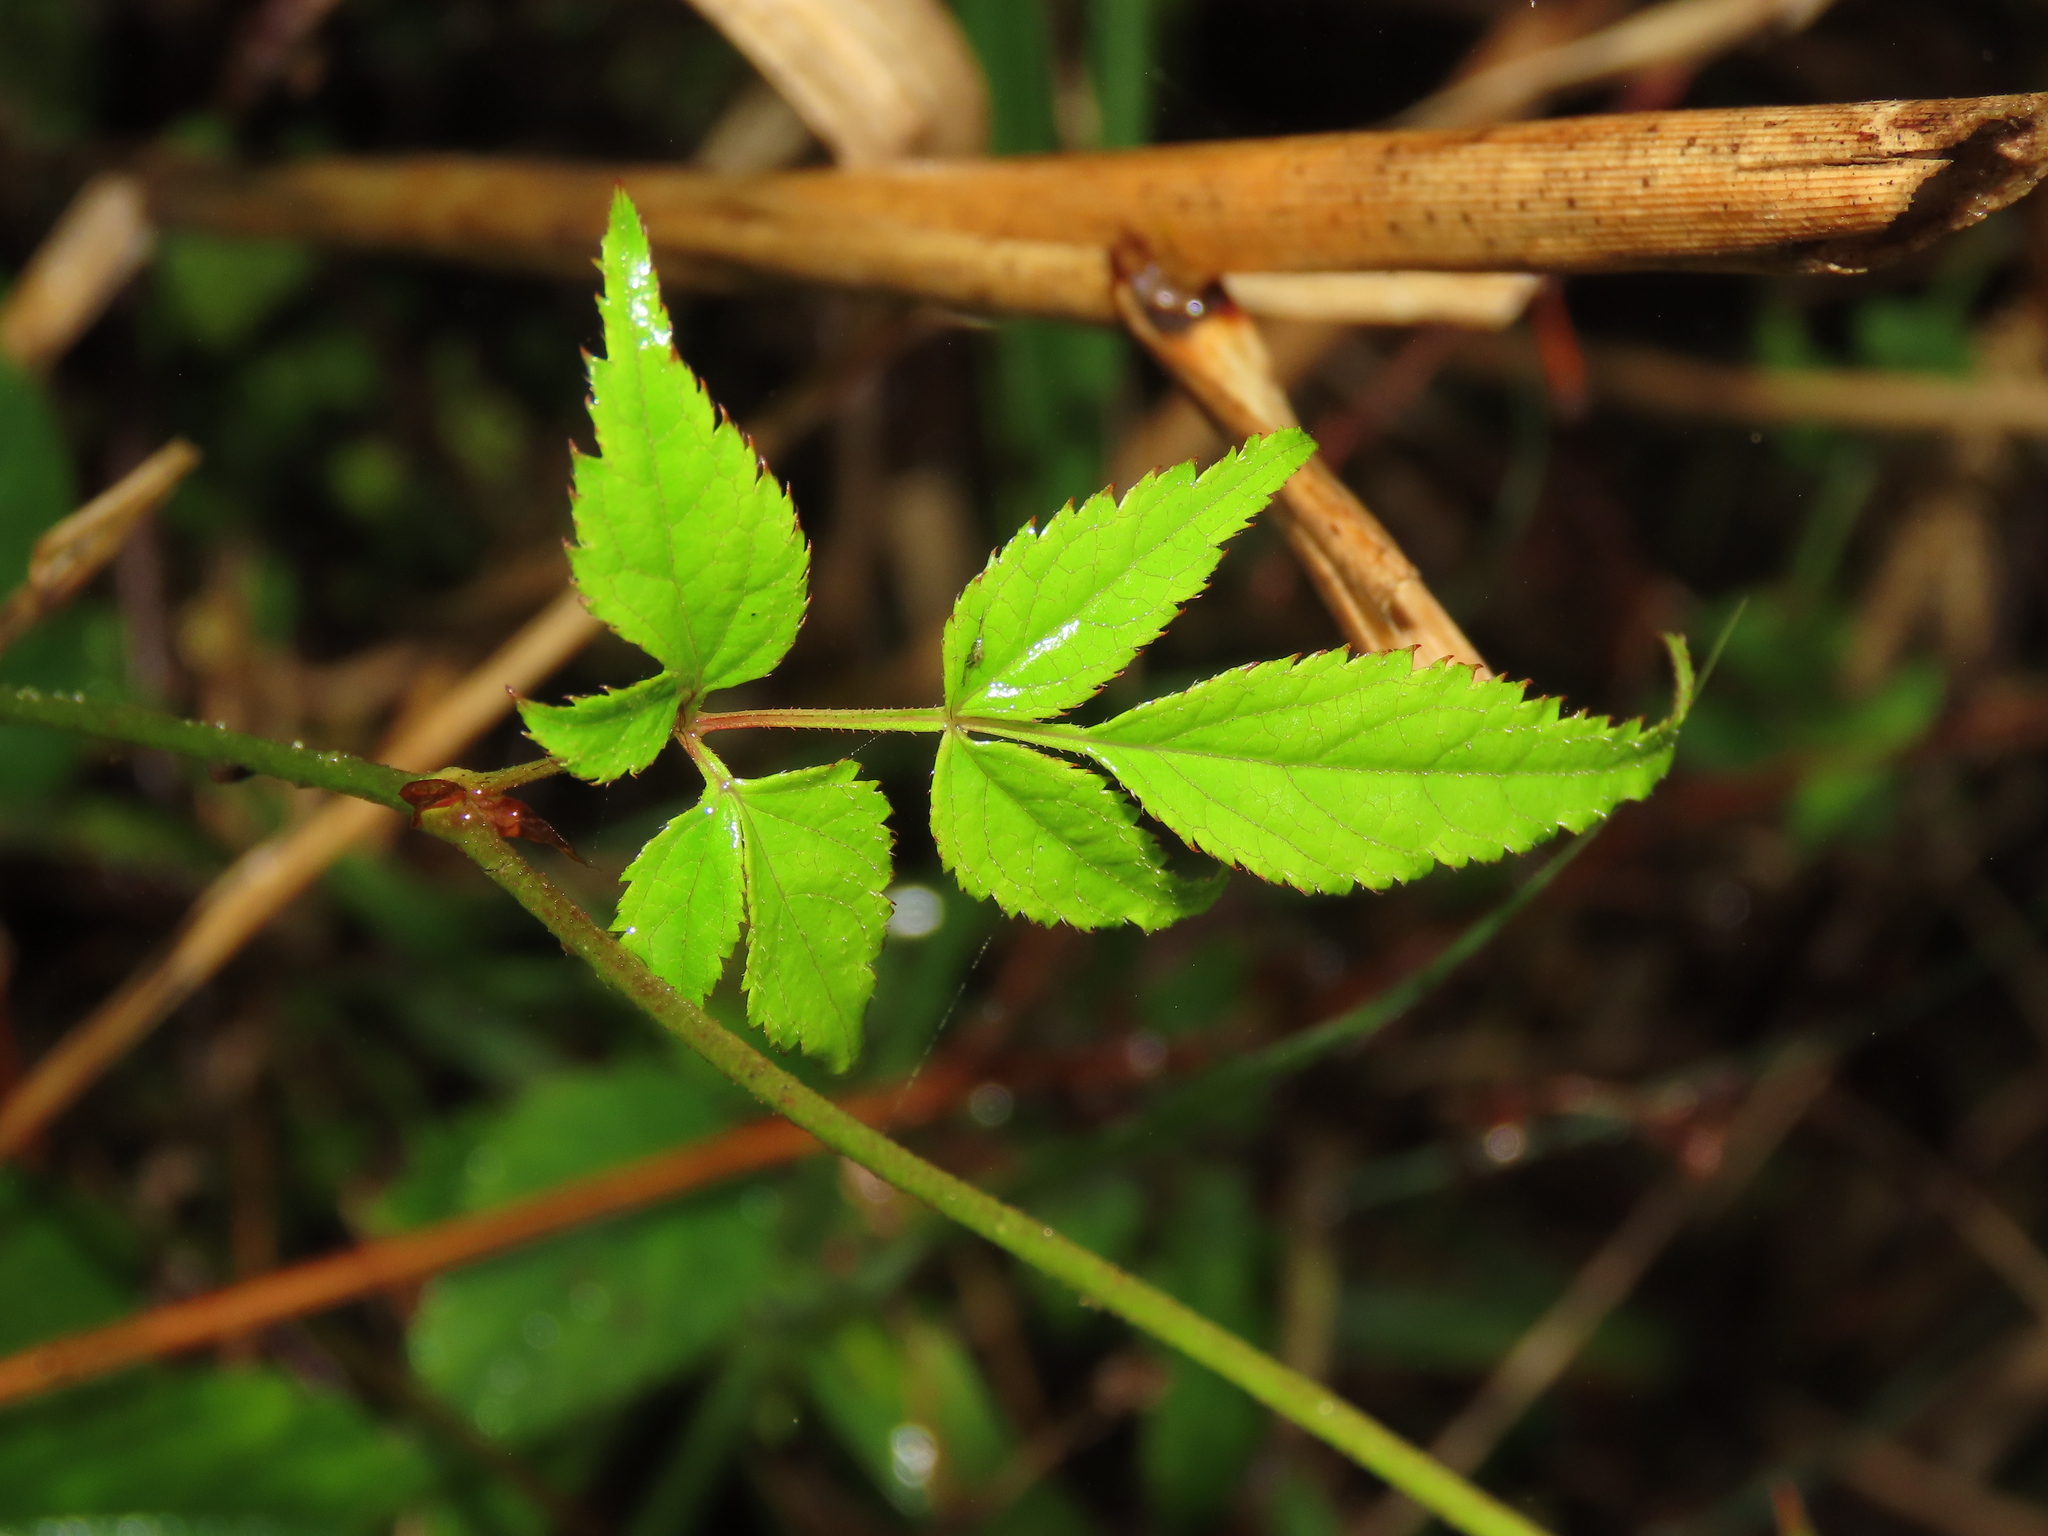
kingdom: Plantae
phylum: Tracheophyta
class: Magnoliopsida
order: Saxifragales
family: Saxifragaceae
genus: Astilbe
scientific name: Astilbe longicarpa
